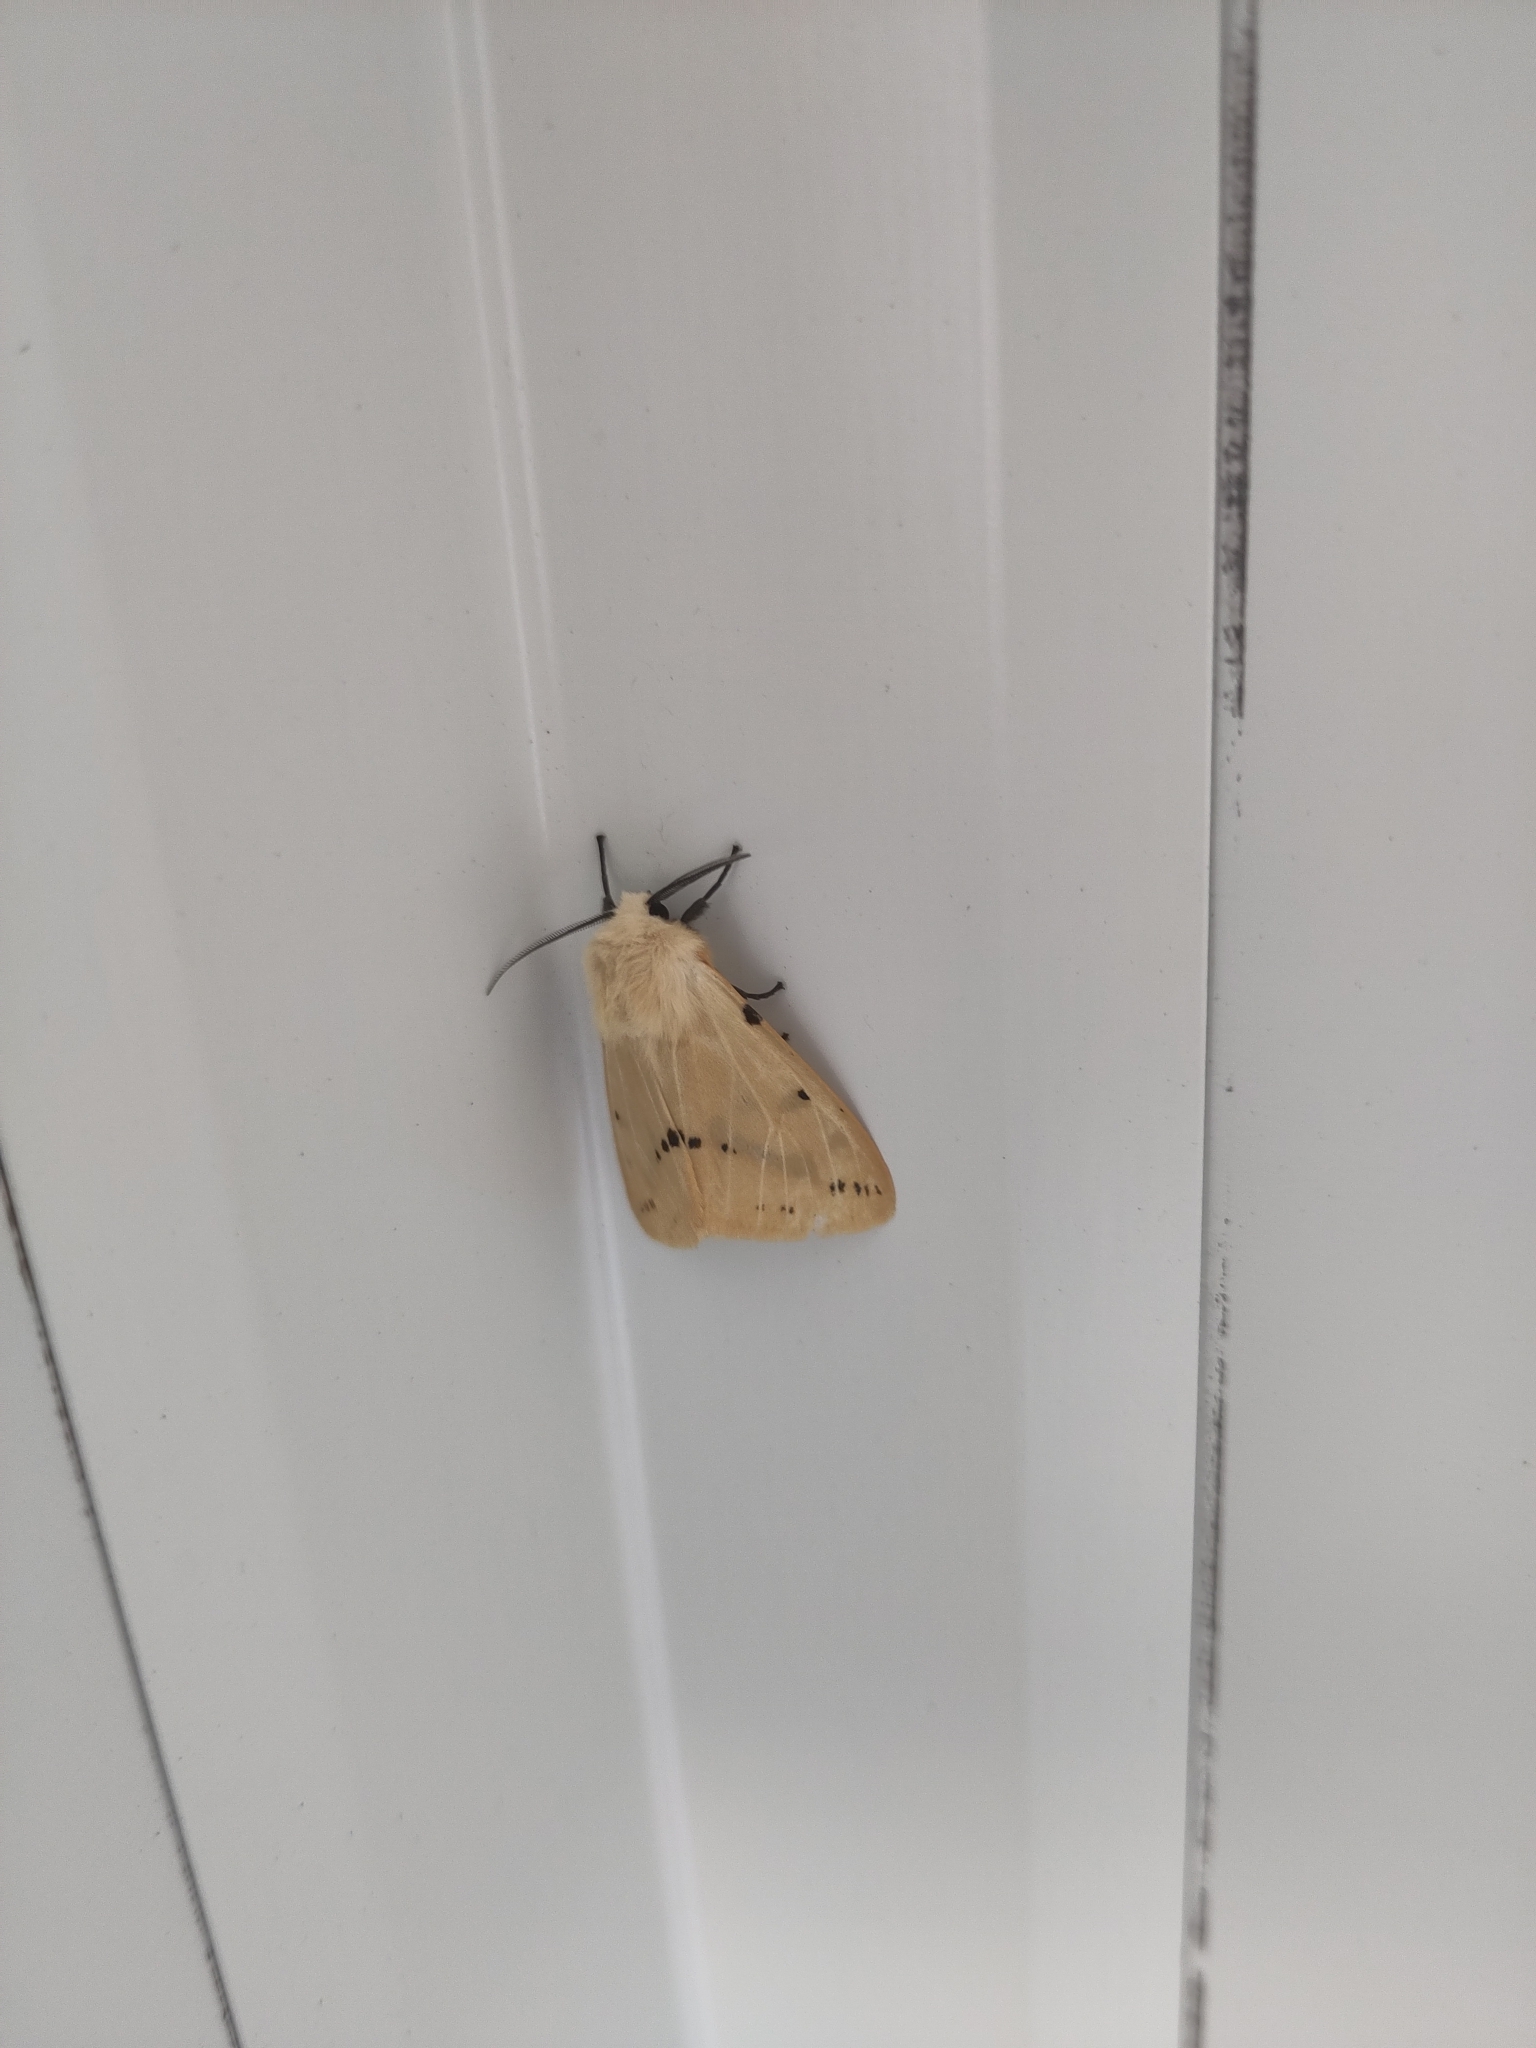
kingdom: Animalia
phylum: Arthropoda
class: Insecta
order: Lepidoptera
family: Erebidae
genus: Spilarctia
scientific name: Spilarctia lutea
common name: Buff ermine
